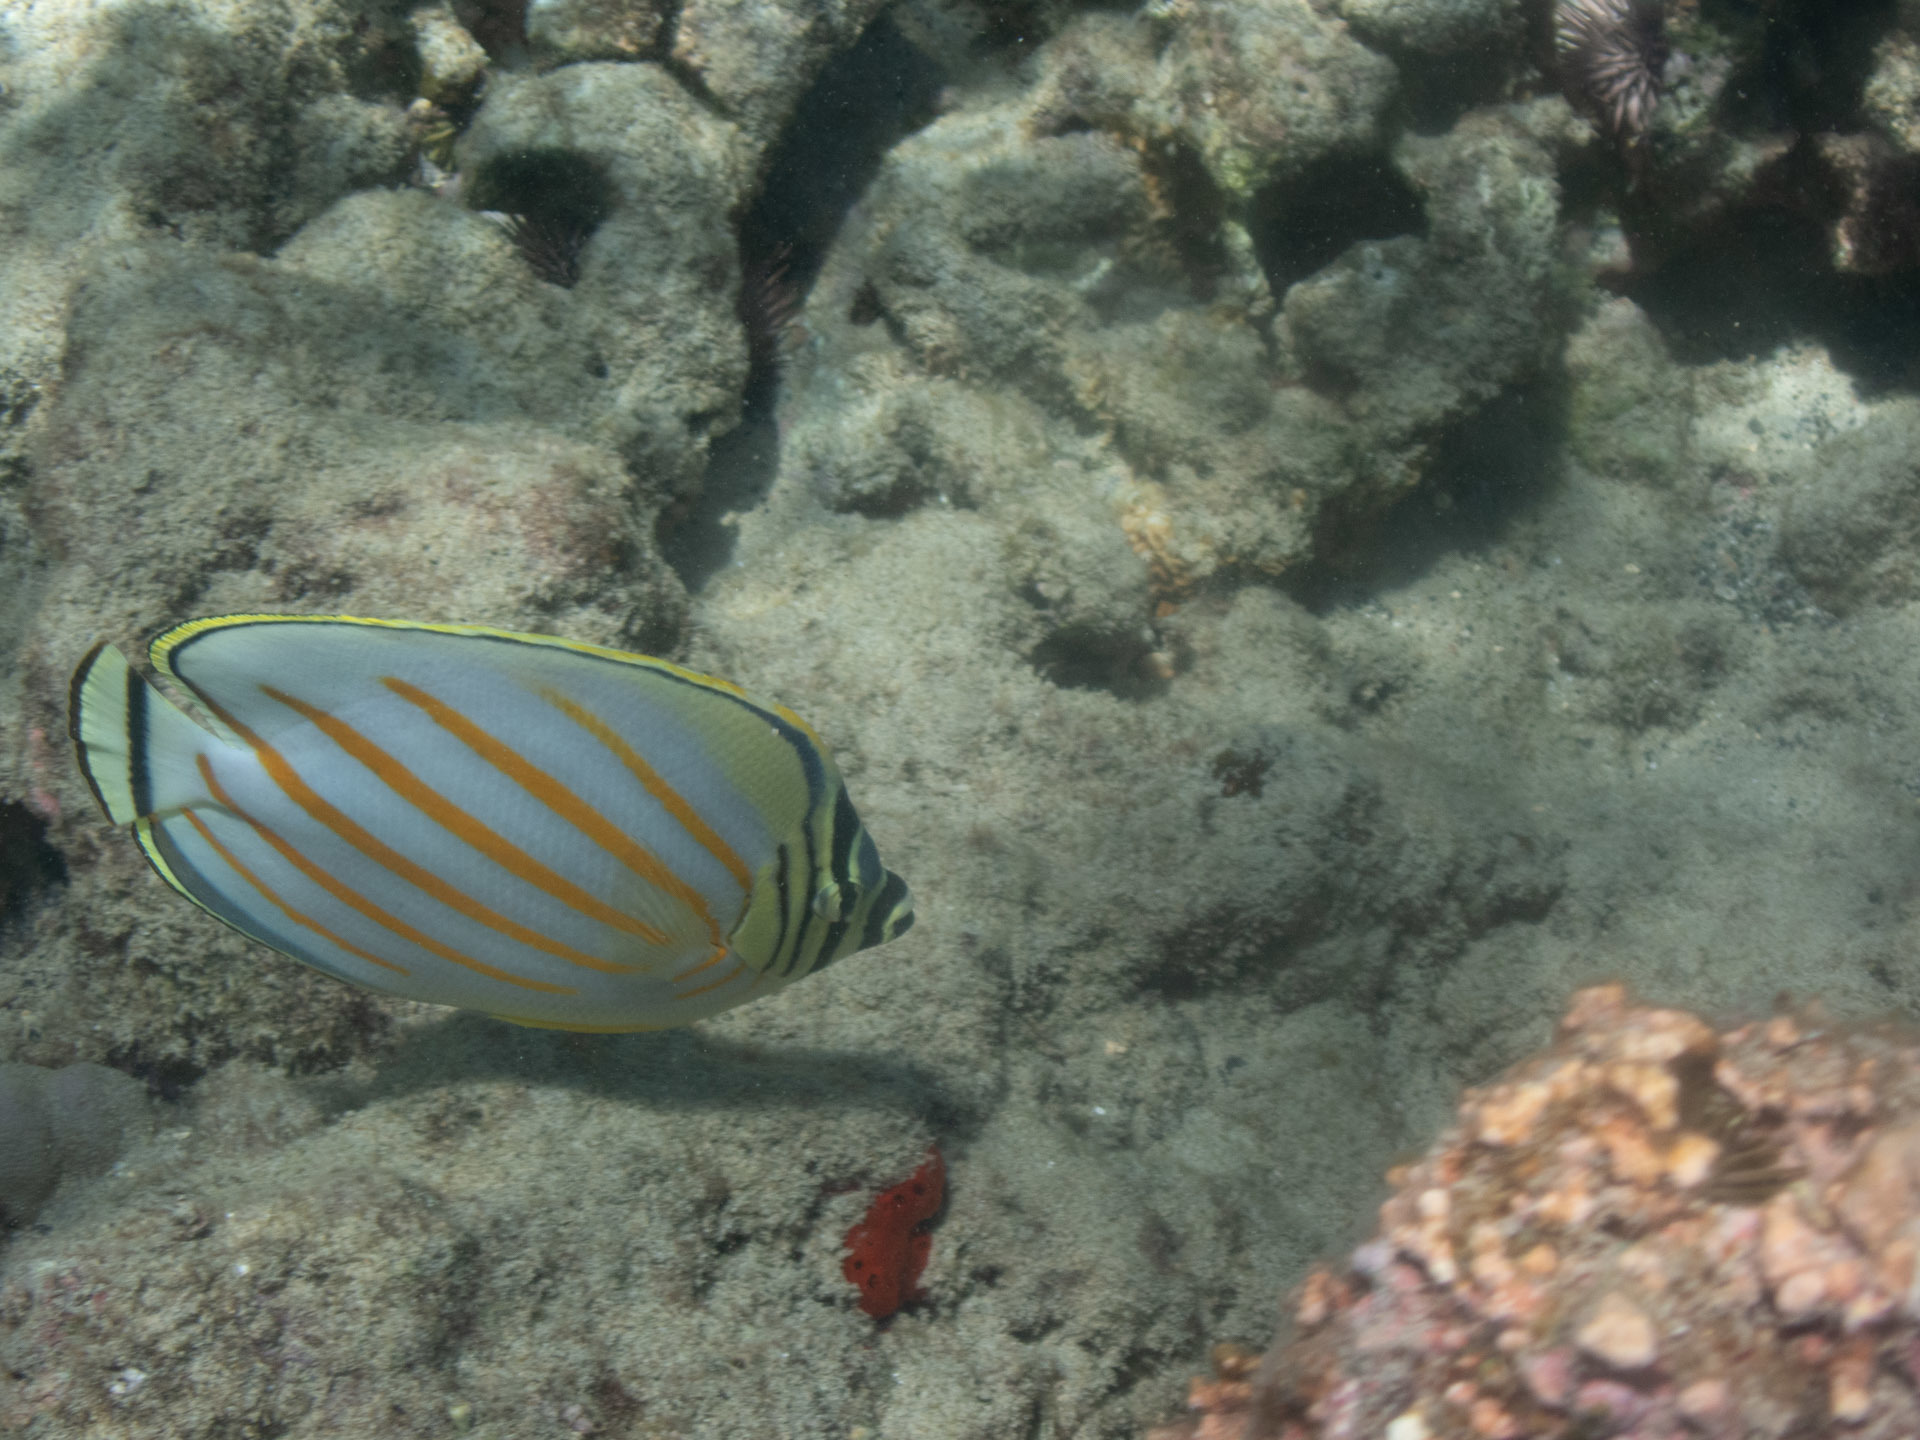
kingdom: Animalia
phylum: Chordata
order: Perciformes
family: Chaetodontidae
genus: Chaetodon
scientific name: Chaetodon ornatissimus
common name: Ornate butterflyfish
